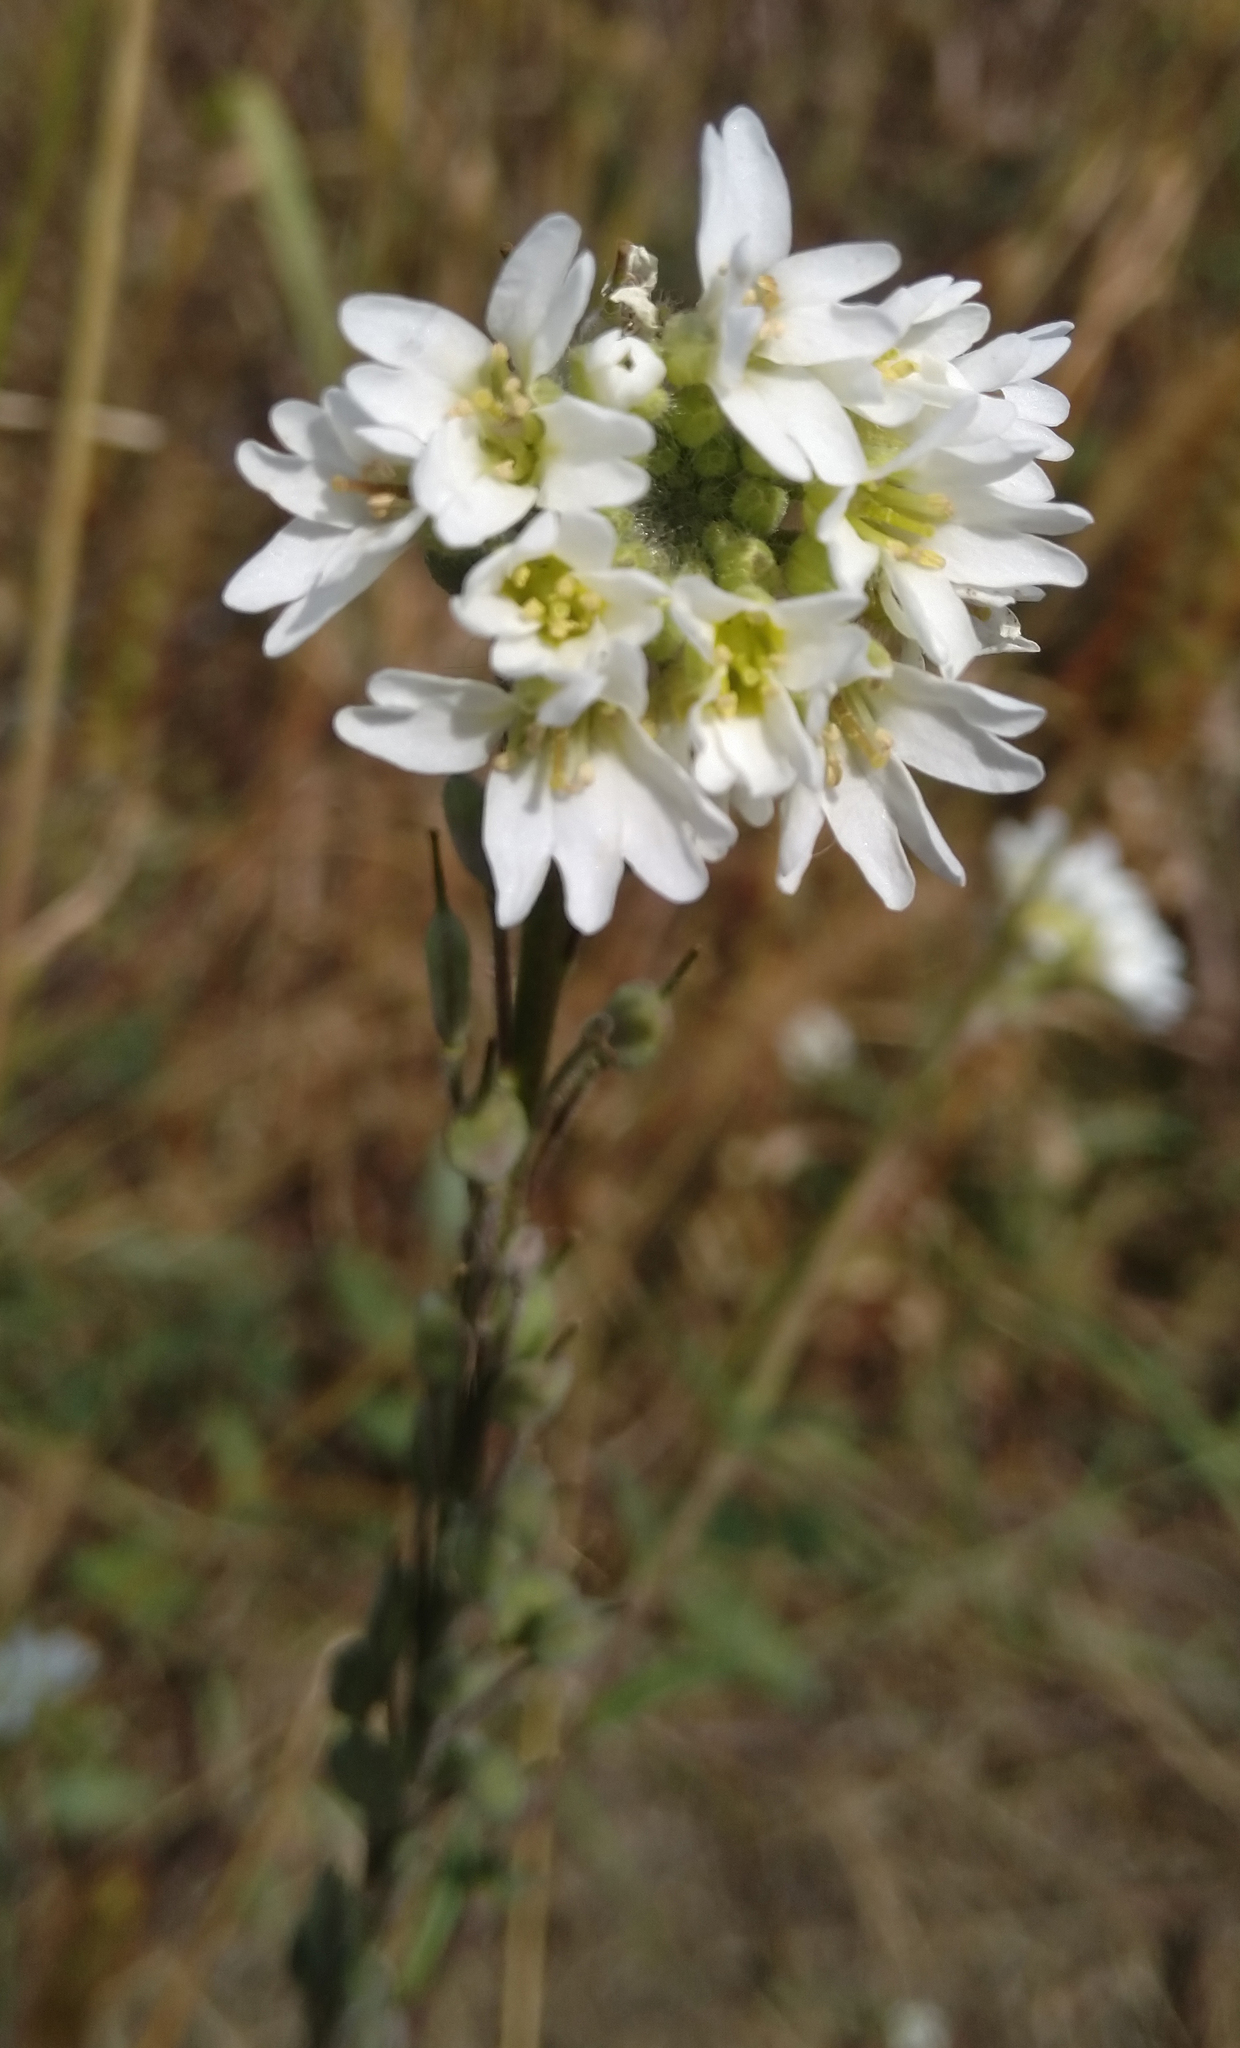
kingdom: Plantae
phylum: Tracheophyta
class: Magnoliopsida
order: Brassicales
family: Brassicaceae
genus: Berteroa
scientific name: Berteroa incana
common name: Hoary alison
